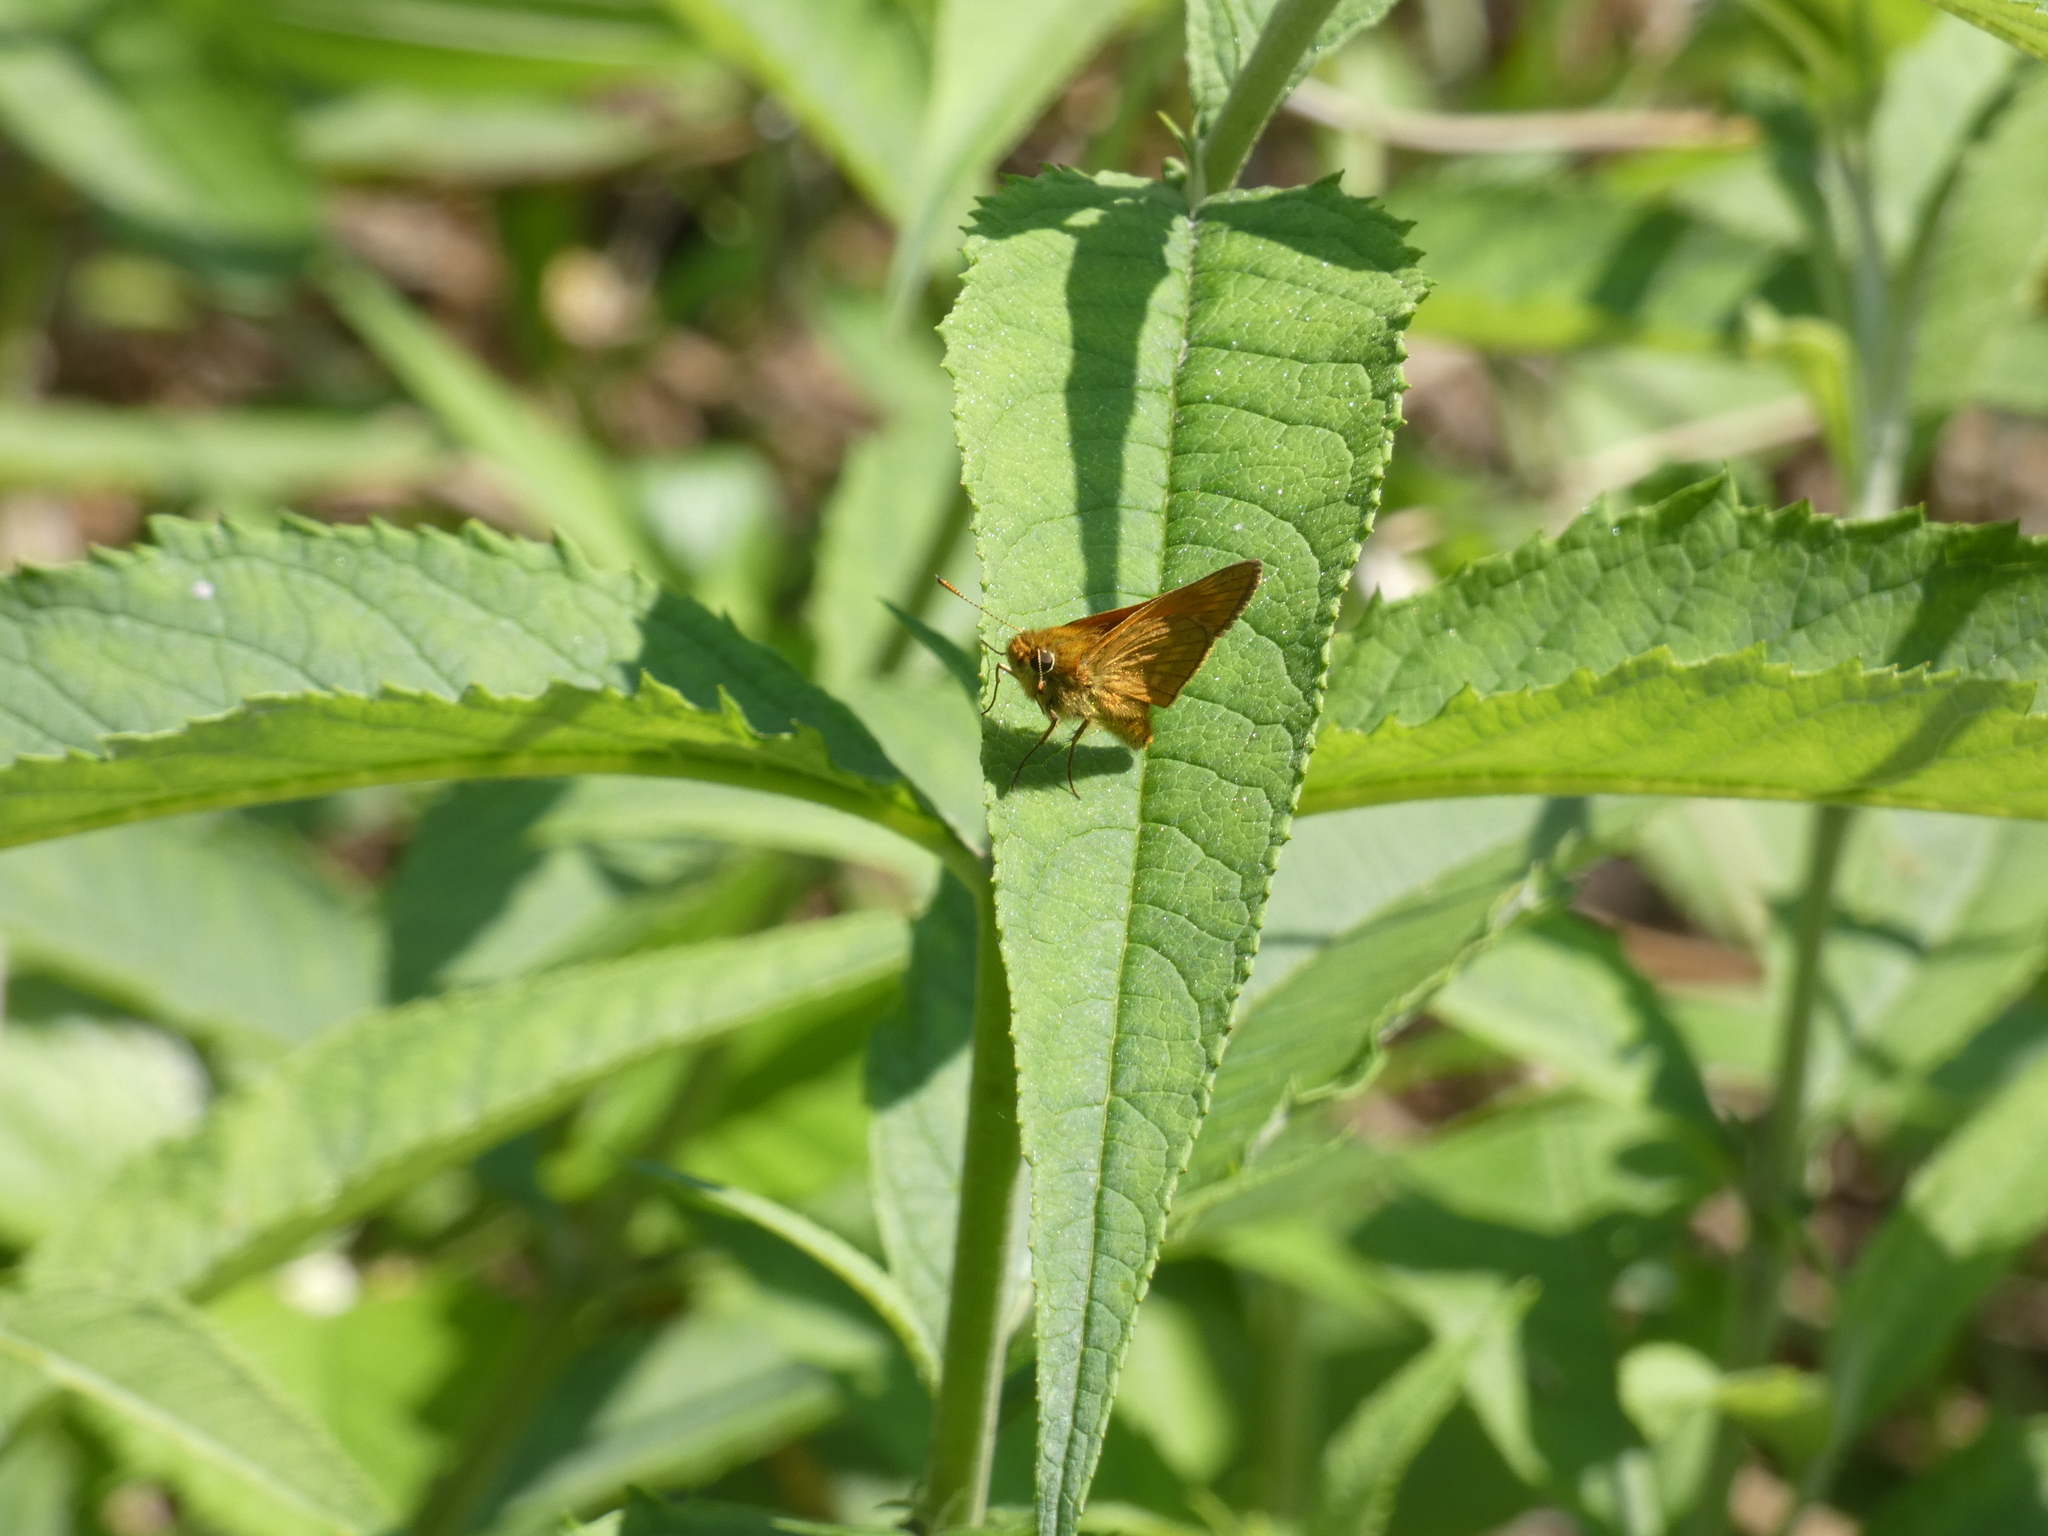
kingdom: Animalia
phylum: Arthropoda
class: Insecta
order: Lepidoptera
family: Hesperiidae
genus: Ochlodes
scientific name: Ochlodes venata
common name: Large skipper
